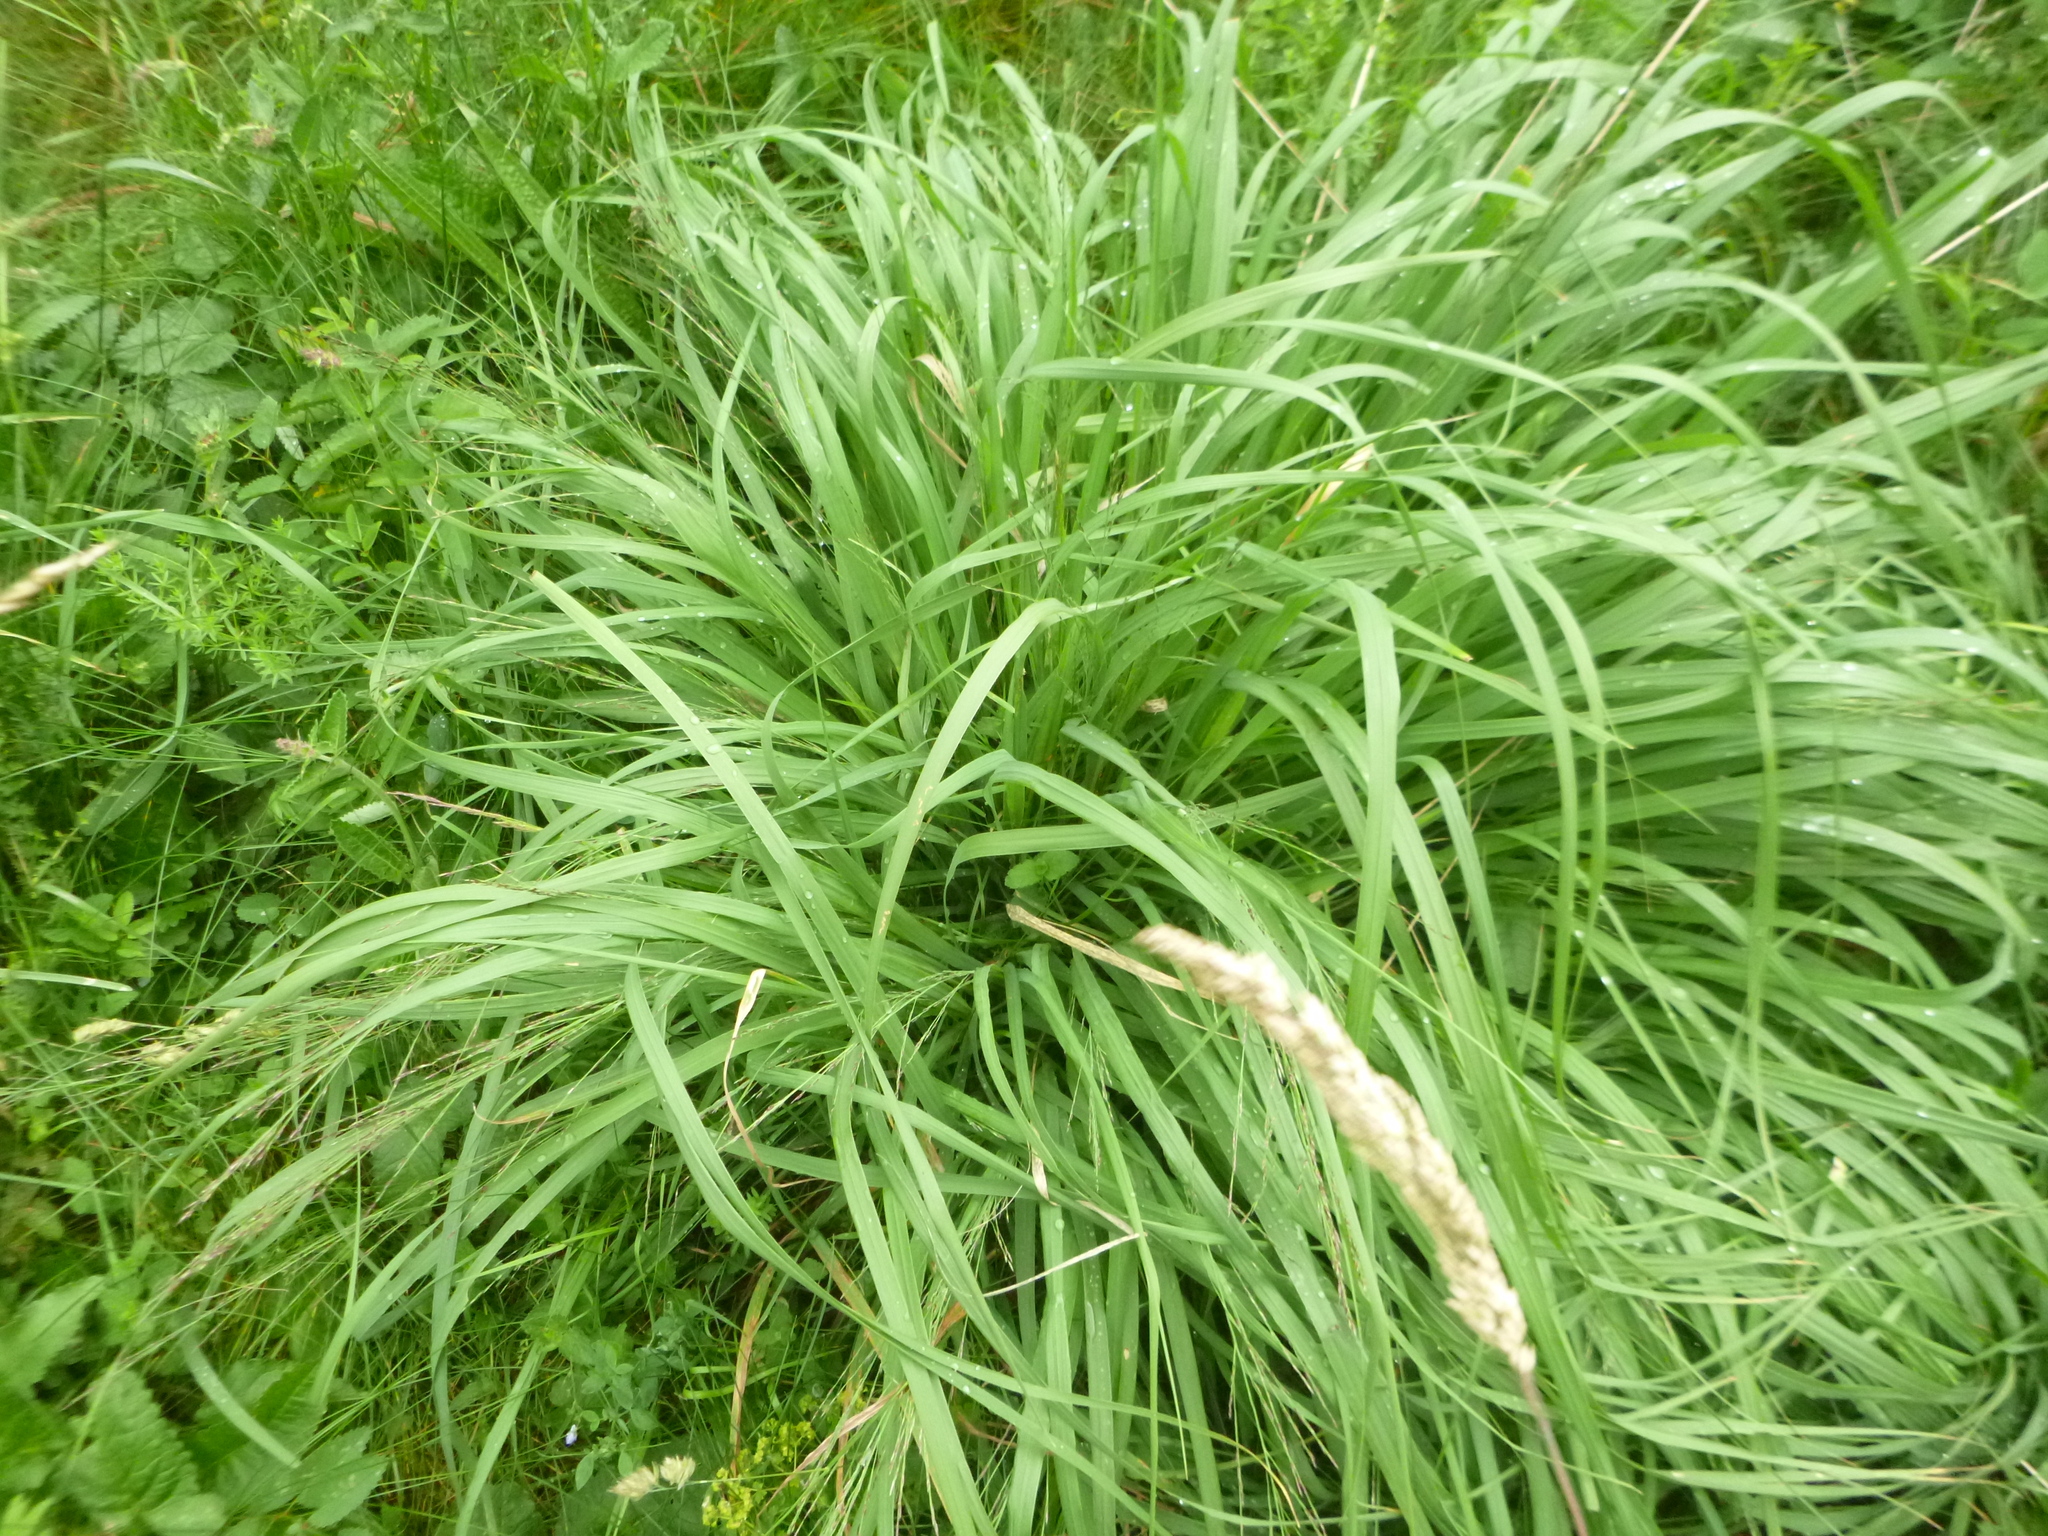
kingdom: Plantae
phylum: Tracheophyta
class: Liliopsida
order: Poales
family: Poaceae
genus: Molinia
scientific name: Molinia caerulea
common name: Purple moor-grass
